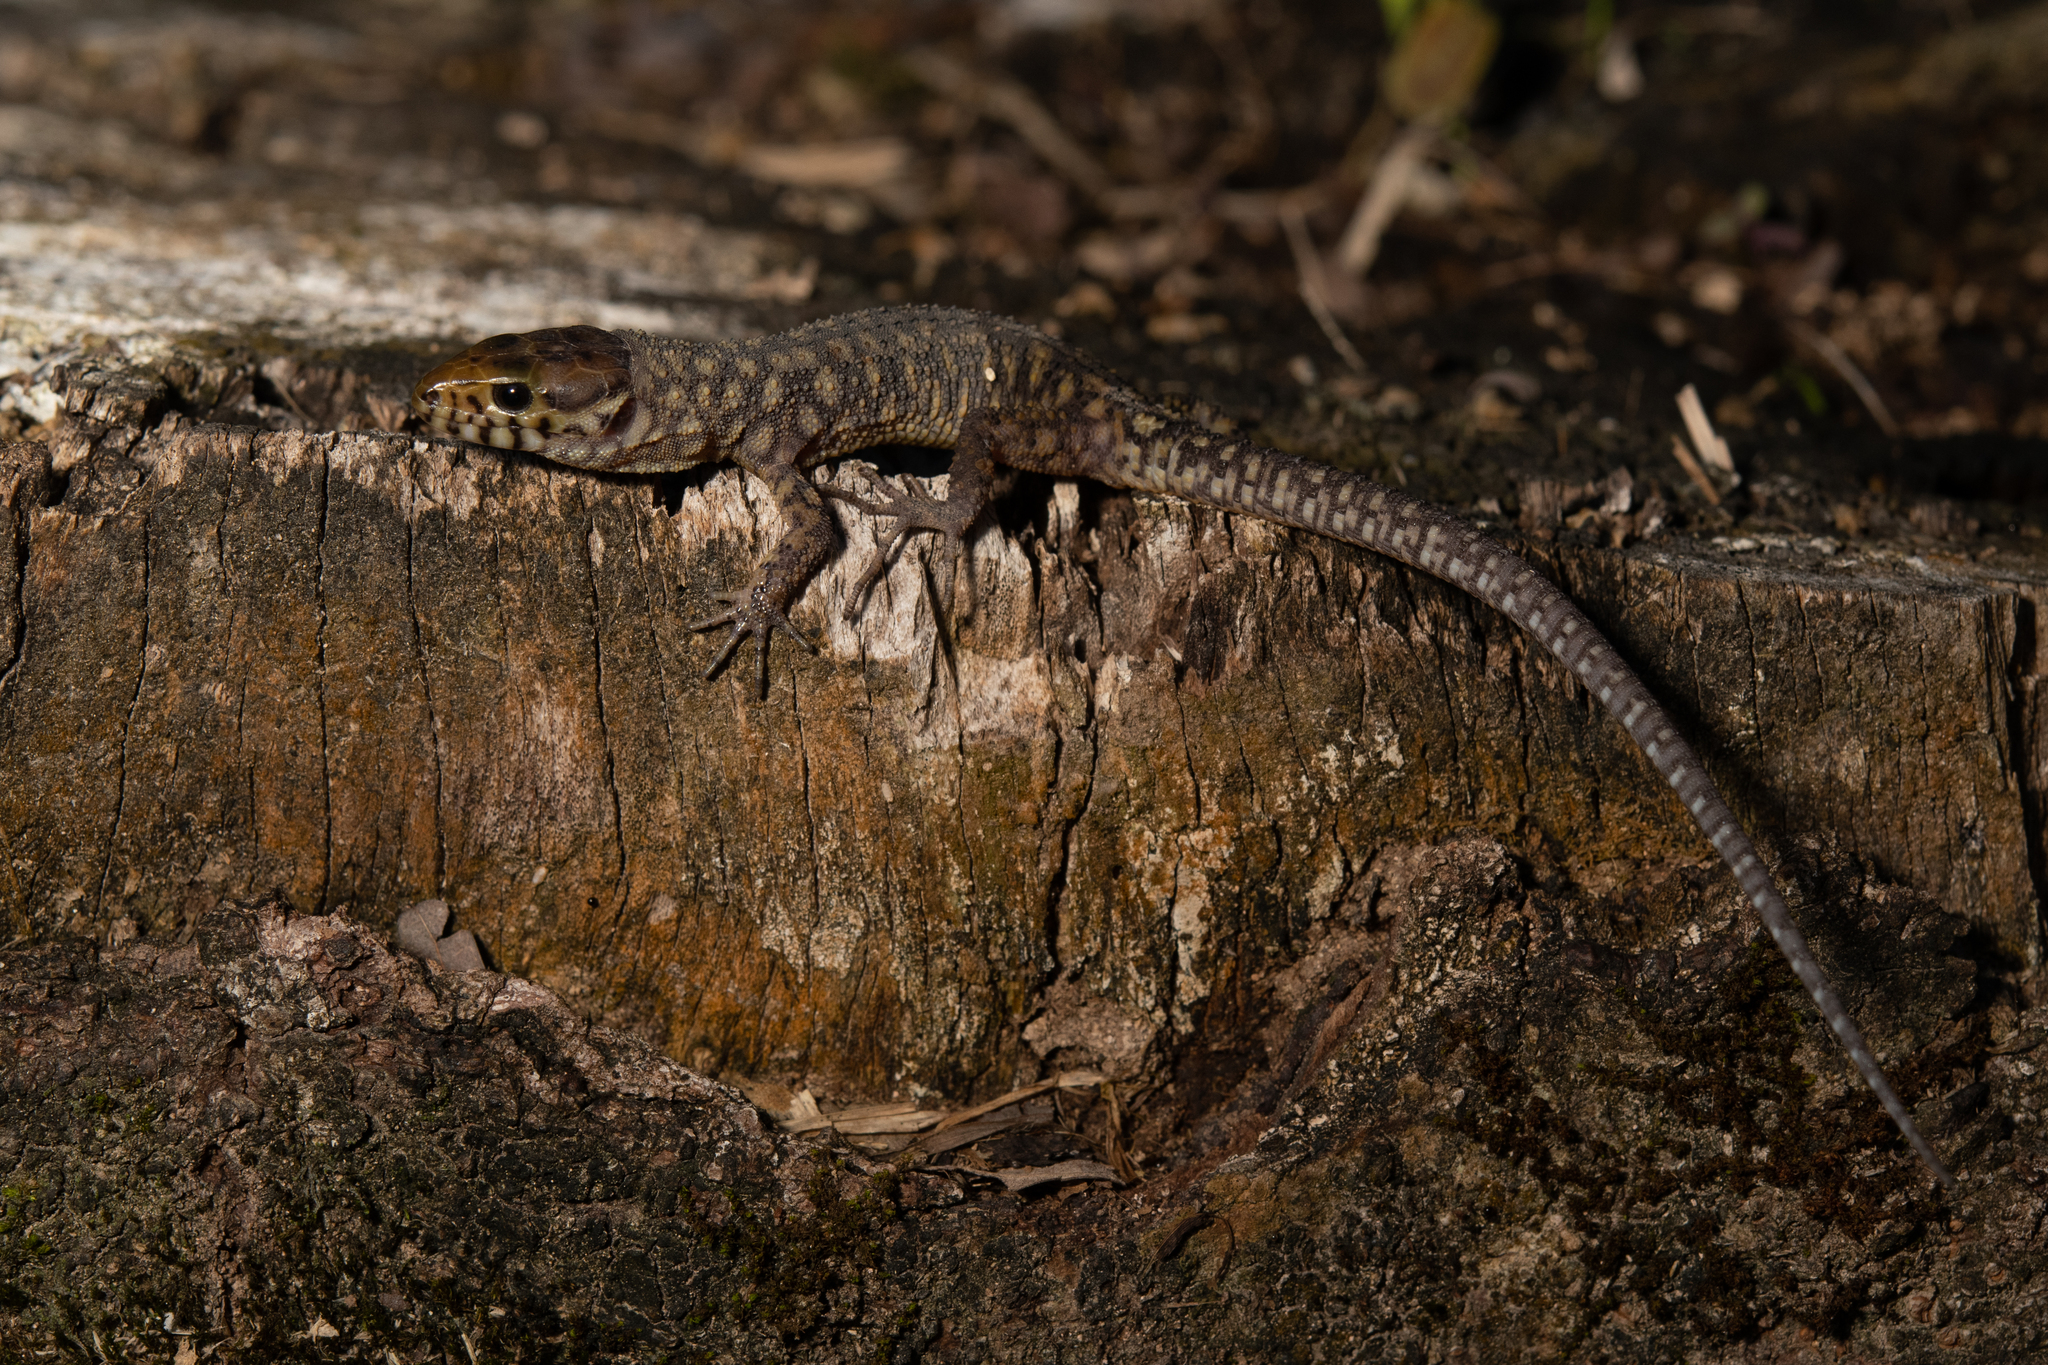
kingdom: Animalia
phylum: Chordata
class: Squamata
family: Xantusiidae
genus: Lepidophyma
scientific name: Lepidophyma flavimaculatum
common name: Yellow-spotted night lizard
